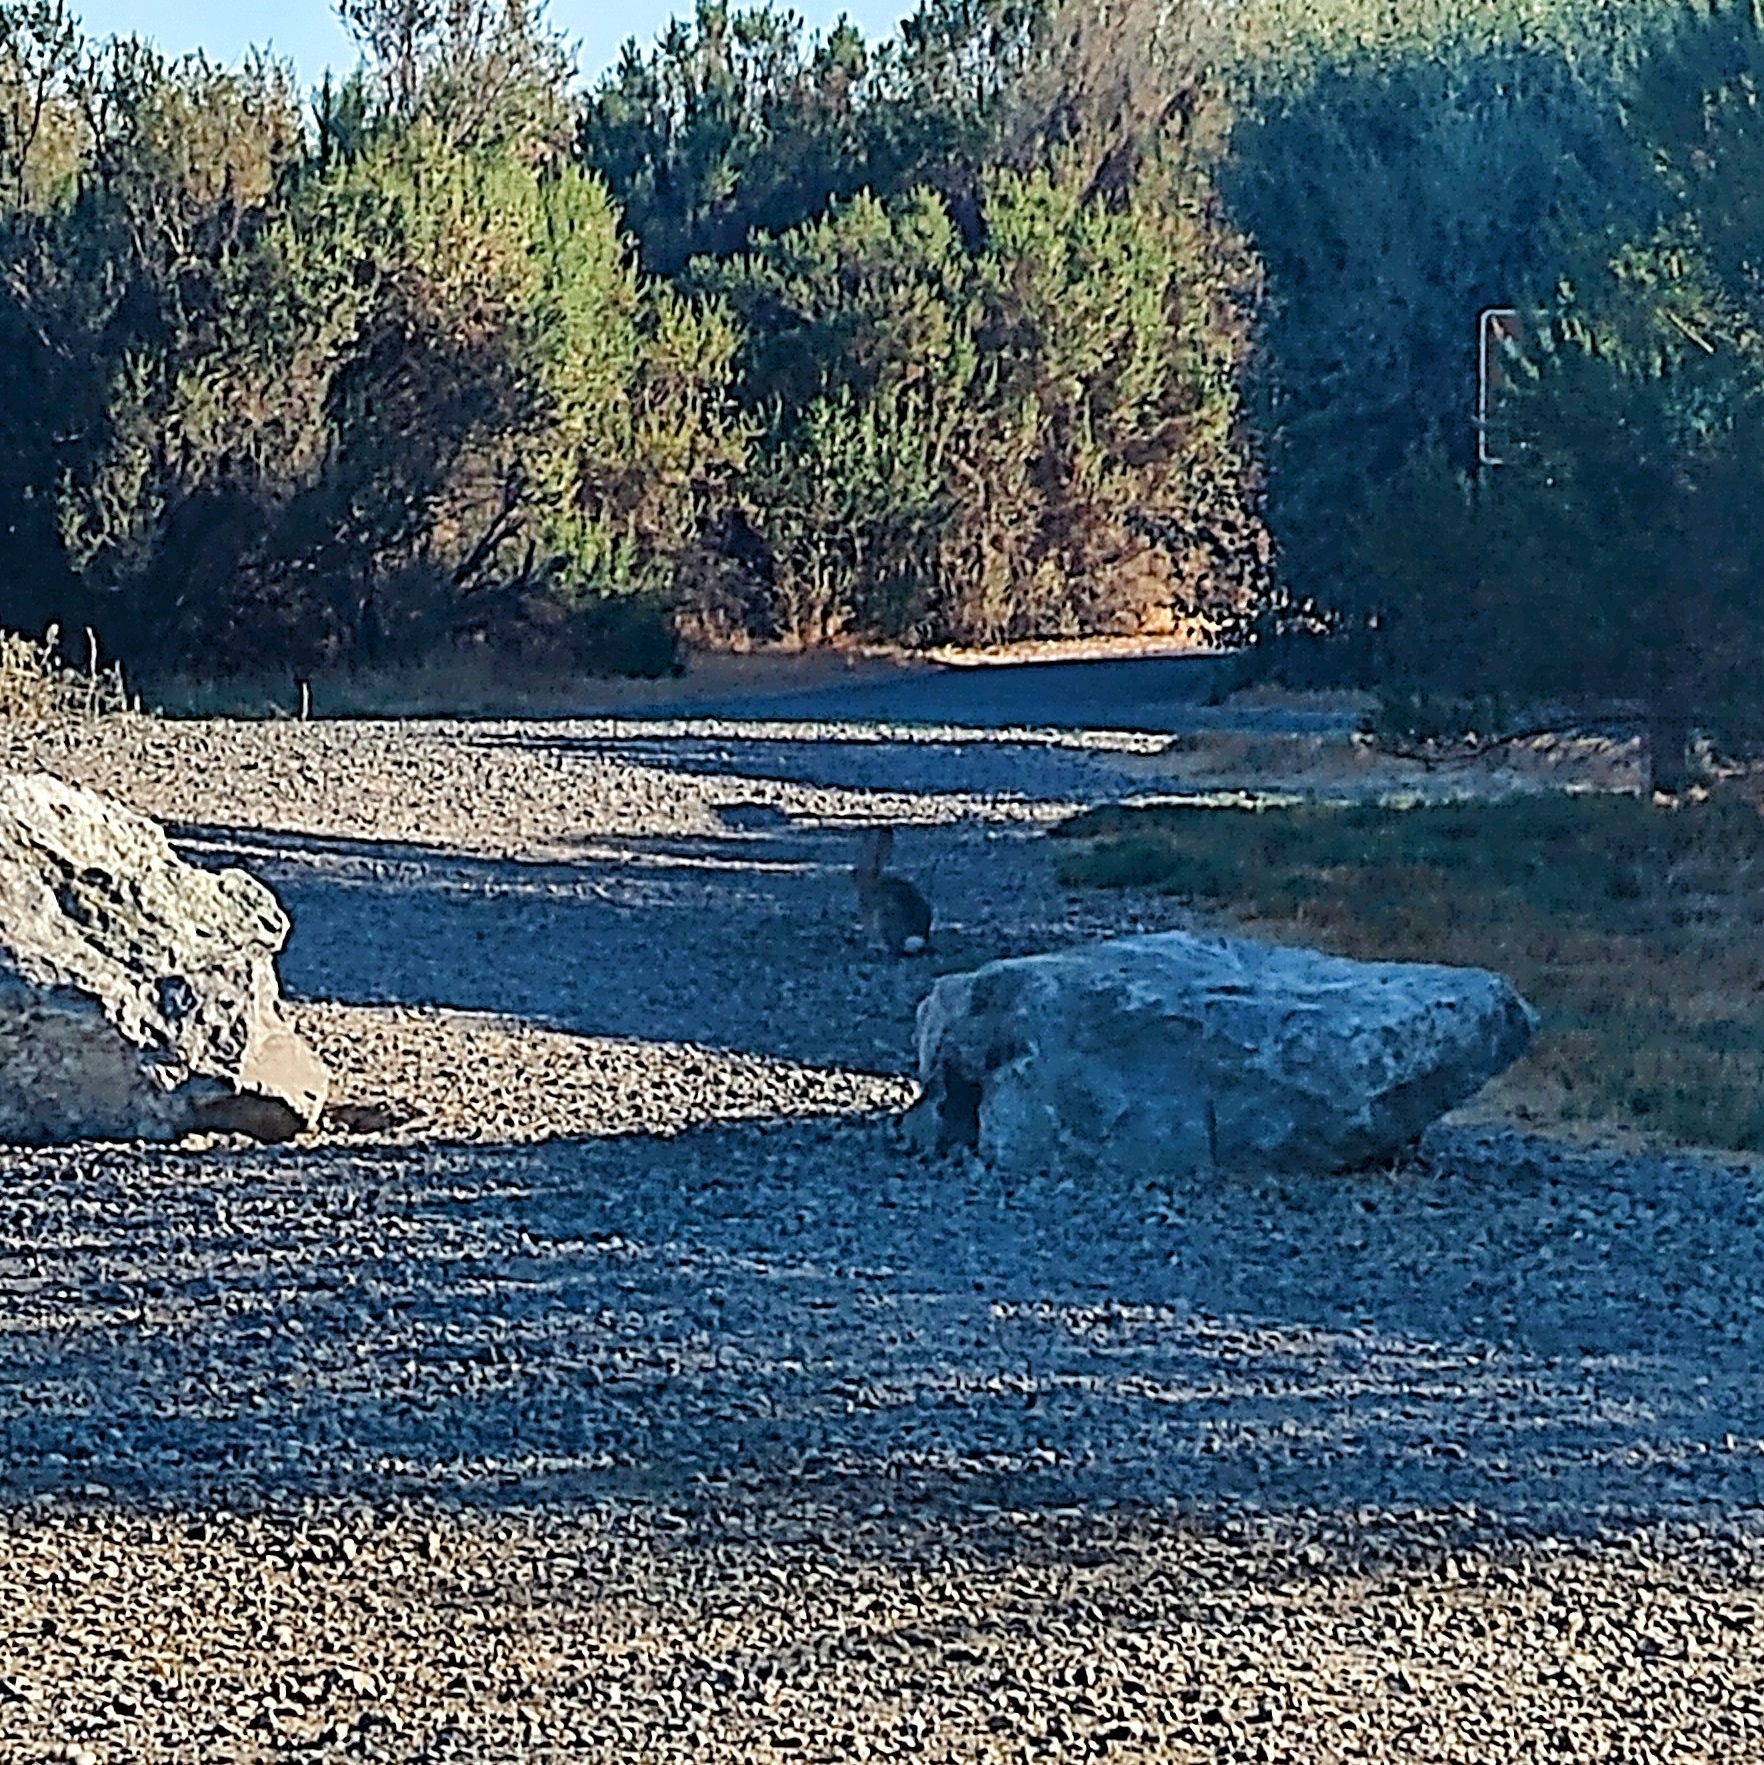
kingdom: Animalia
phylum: Chordata
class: Mammalia
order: Lagomorpha
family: Leporidae
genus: Sylvilagus
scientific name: Sylvilagus audubonii
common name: Desert cottontail
